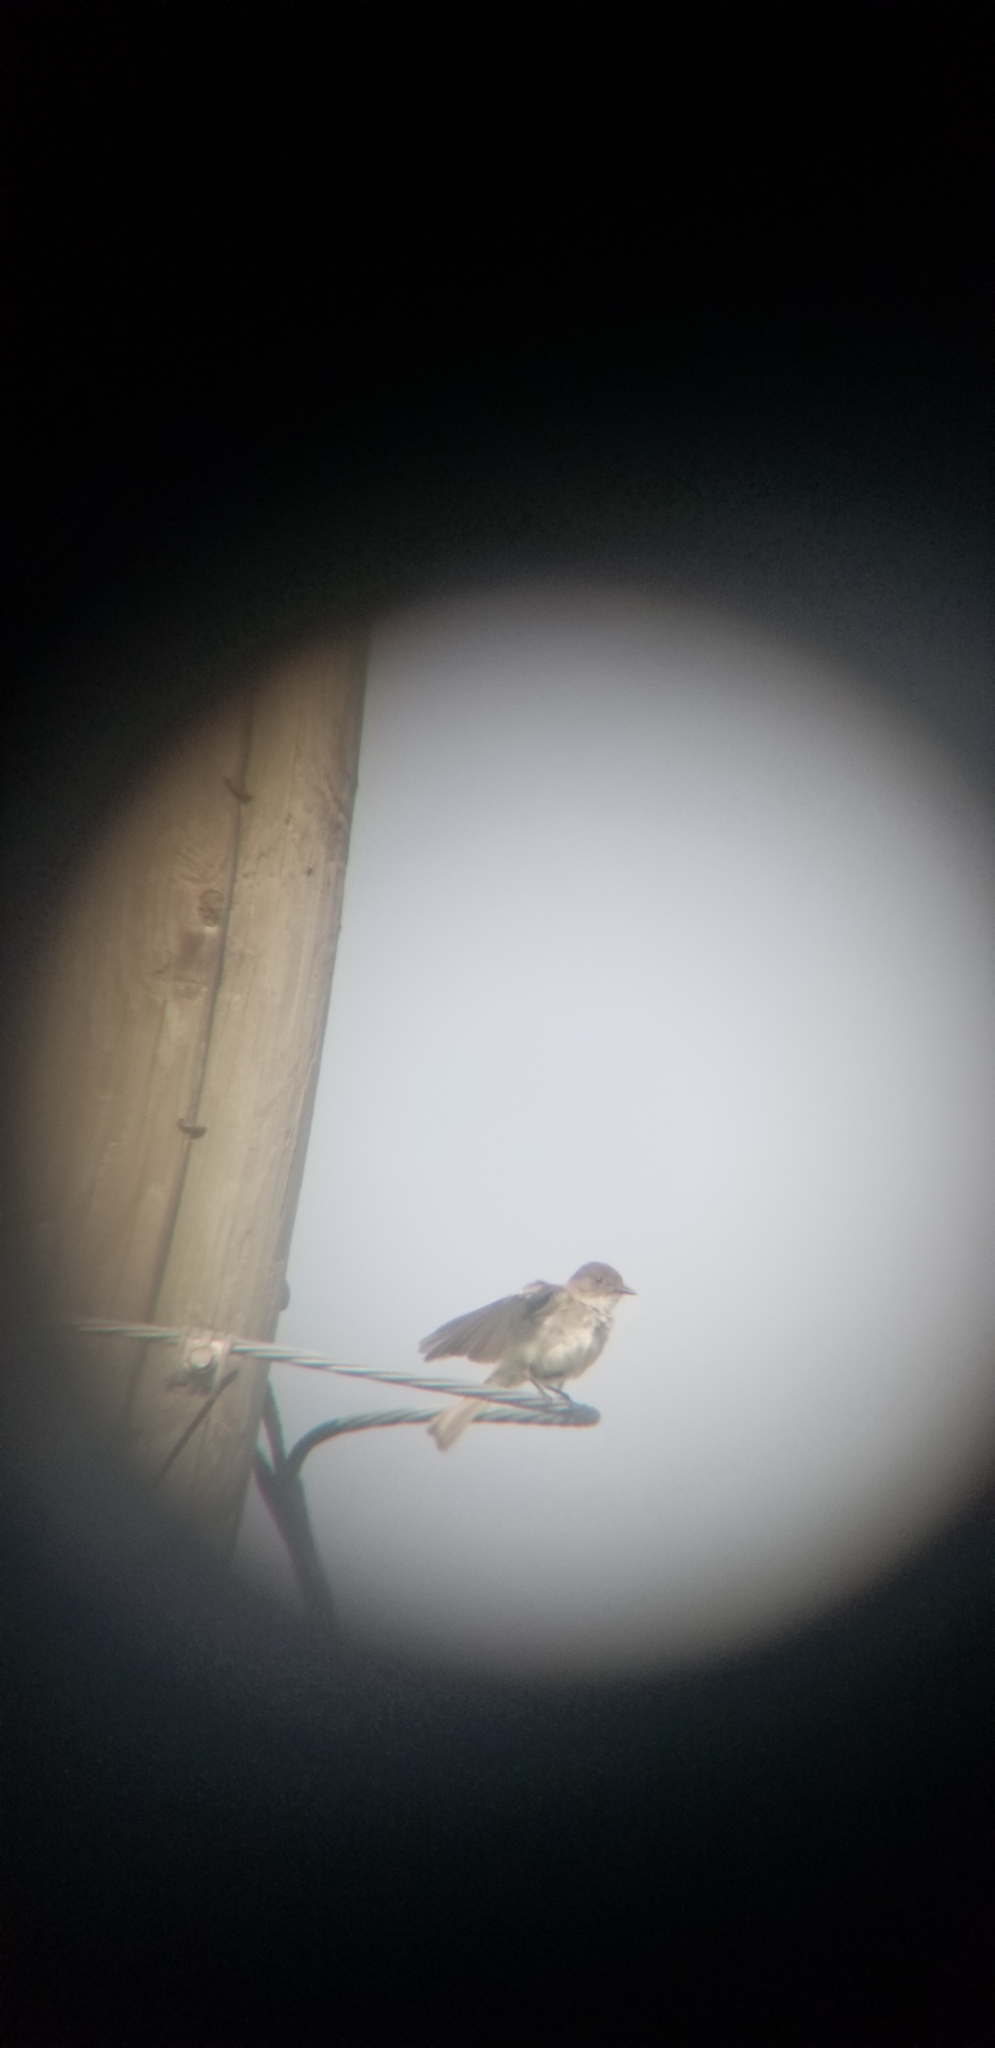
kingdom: Animalia
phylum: Chordata
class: Aves
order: Passeriformes
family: Tyrannidae
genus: Sayornis
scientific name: Sayornis phoebe
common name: Eastern phoebe
